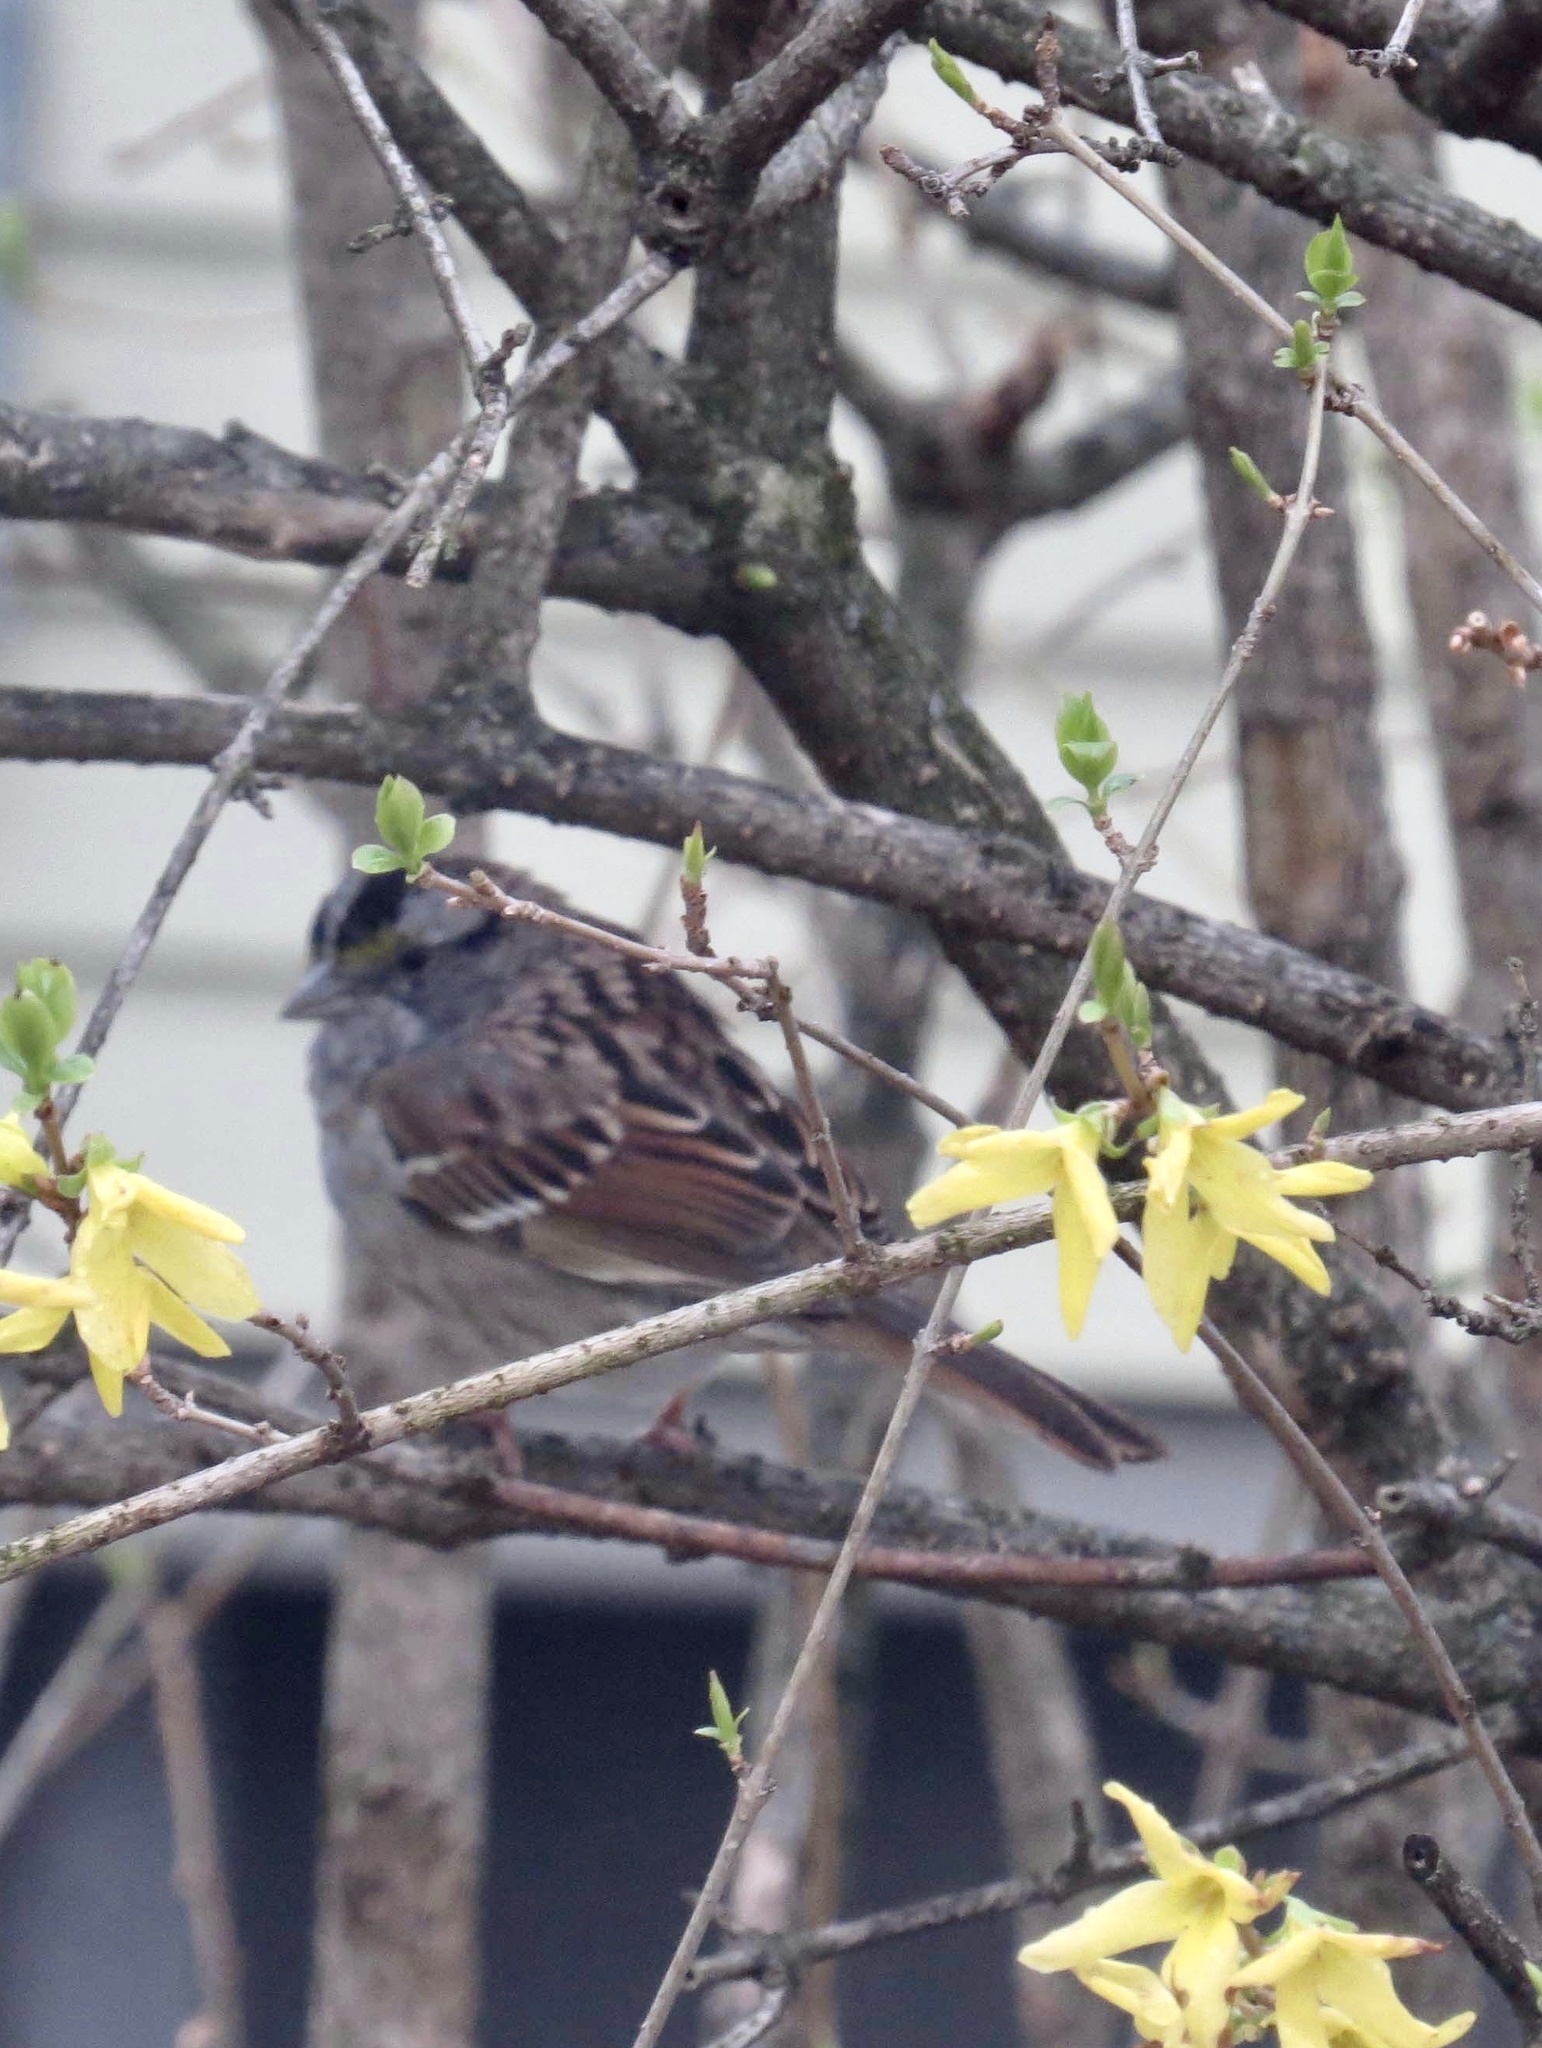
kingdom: Animalia
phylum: Chordata
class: Aves
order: Passeriformes
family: Passerellidae
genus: Zonotrichia
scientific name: Zonotrichia albicollis
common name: White-throated sparrow
